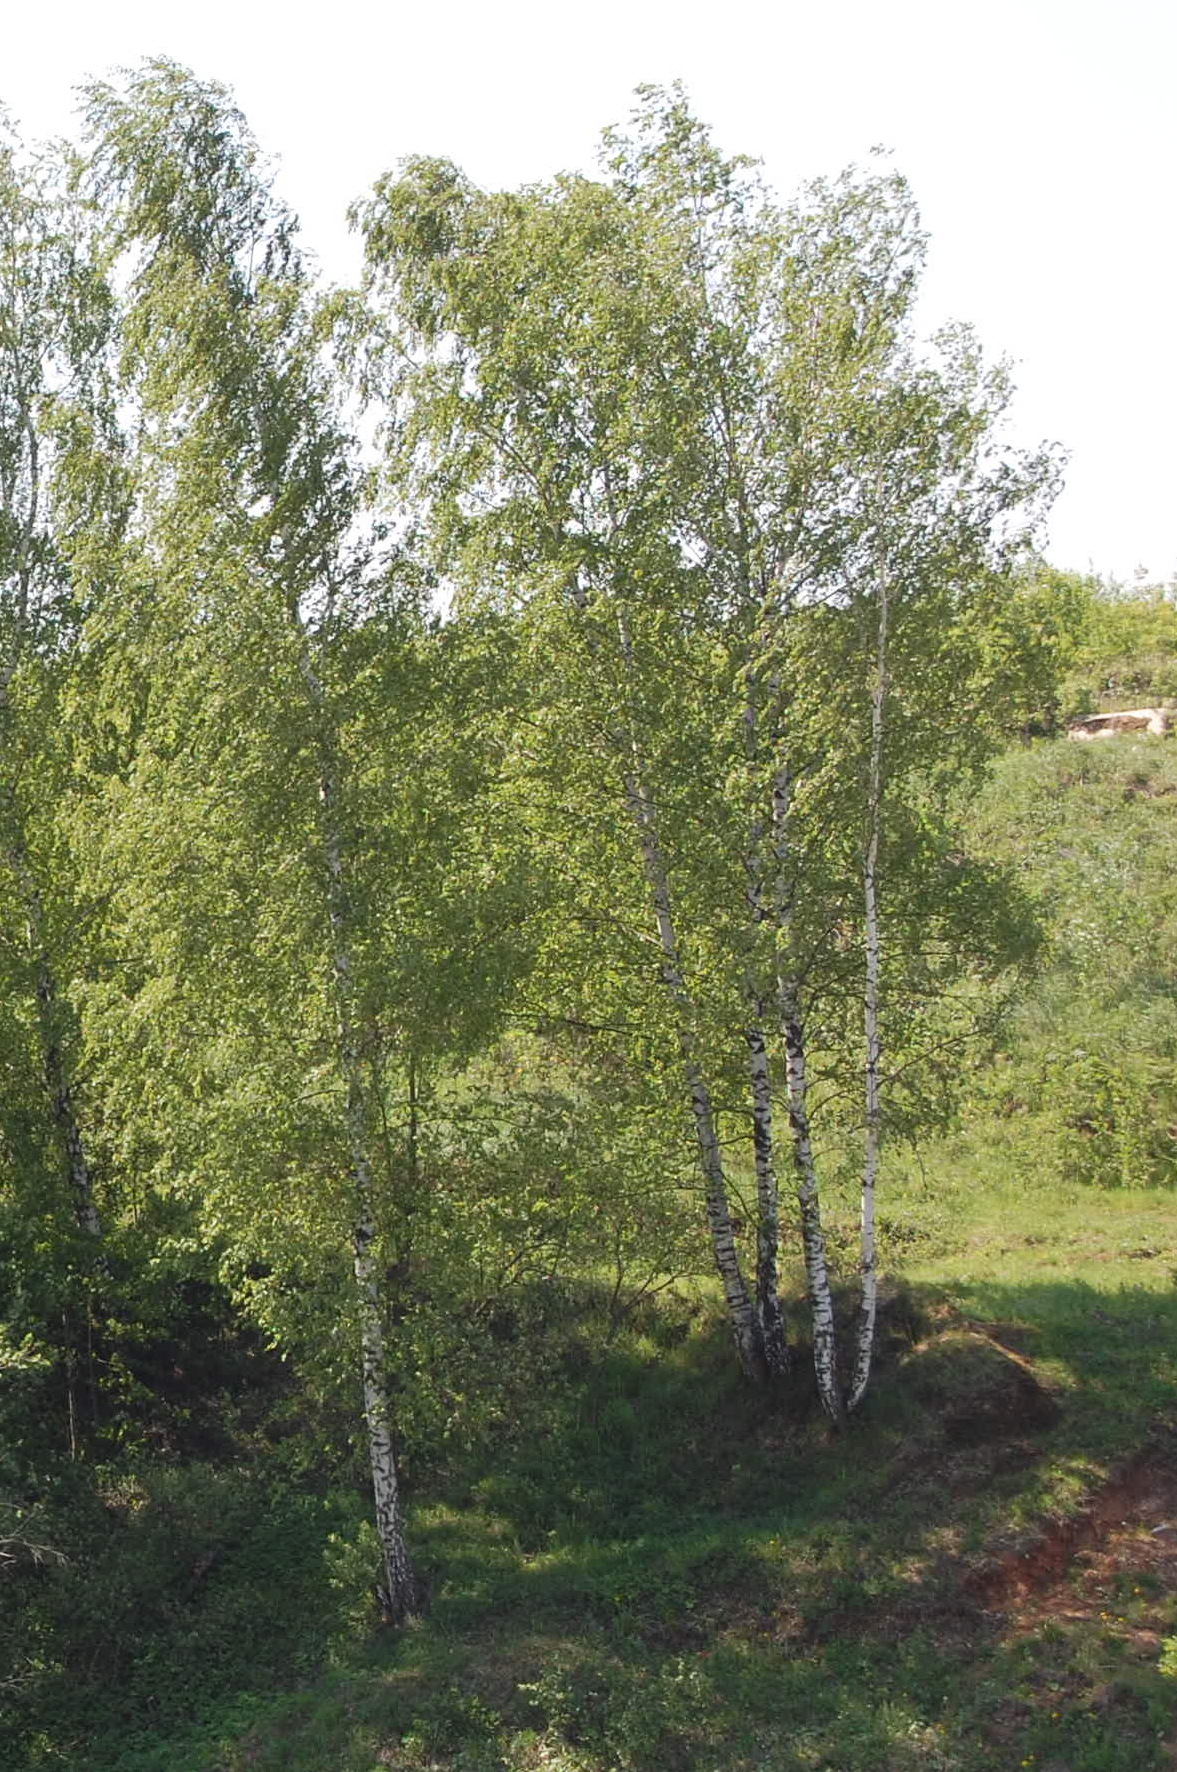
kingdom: Plantae
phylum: Tracheophyta
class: Magnoliopsida
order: Fagales
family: Betulaceae
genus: Betula
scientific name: Betula pendula
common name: Silver birch
